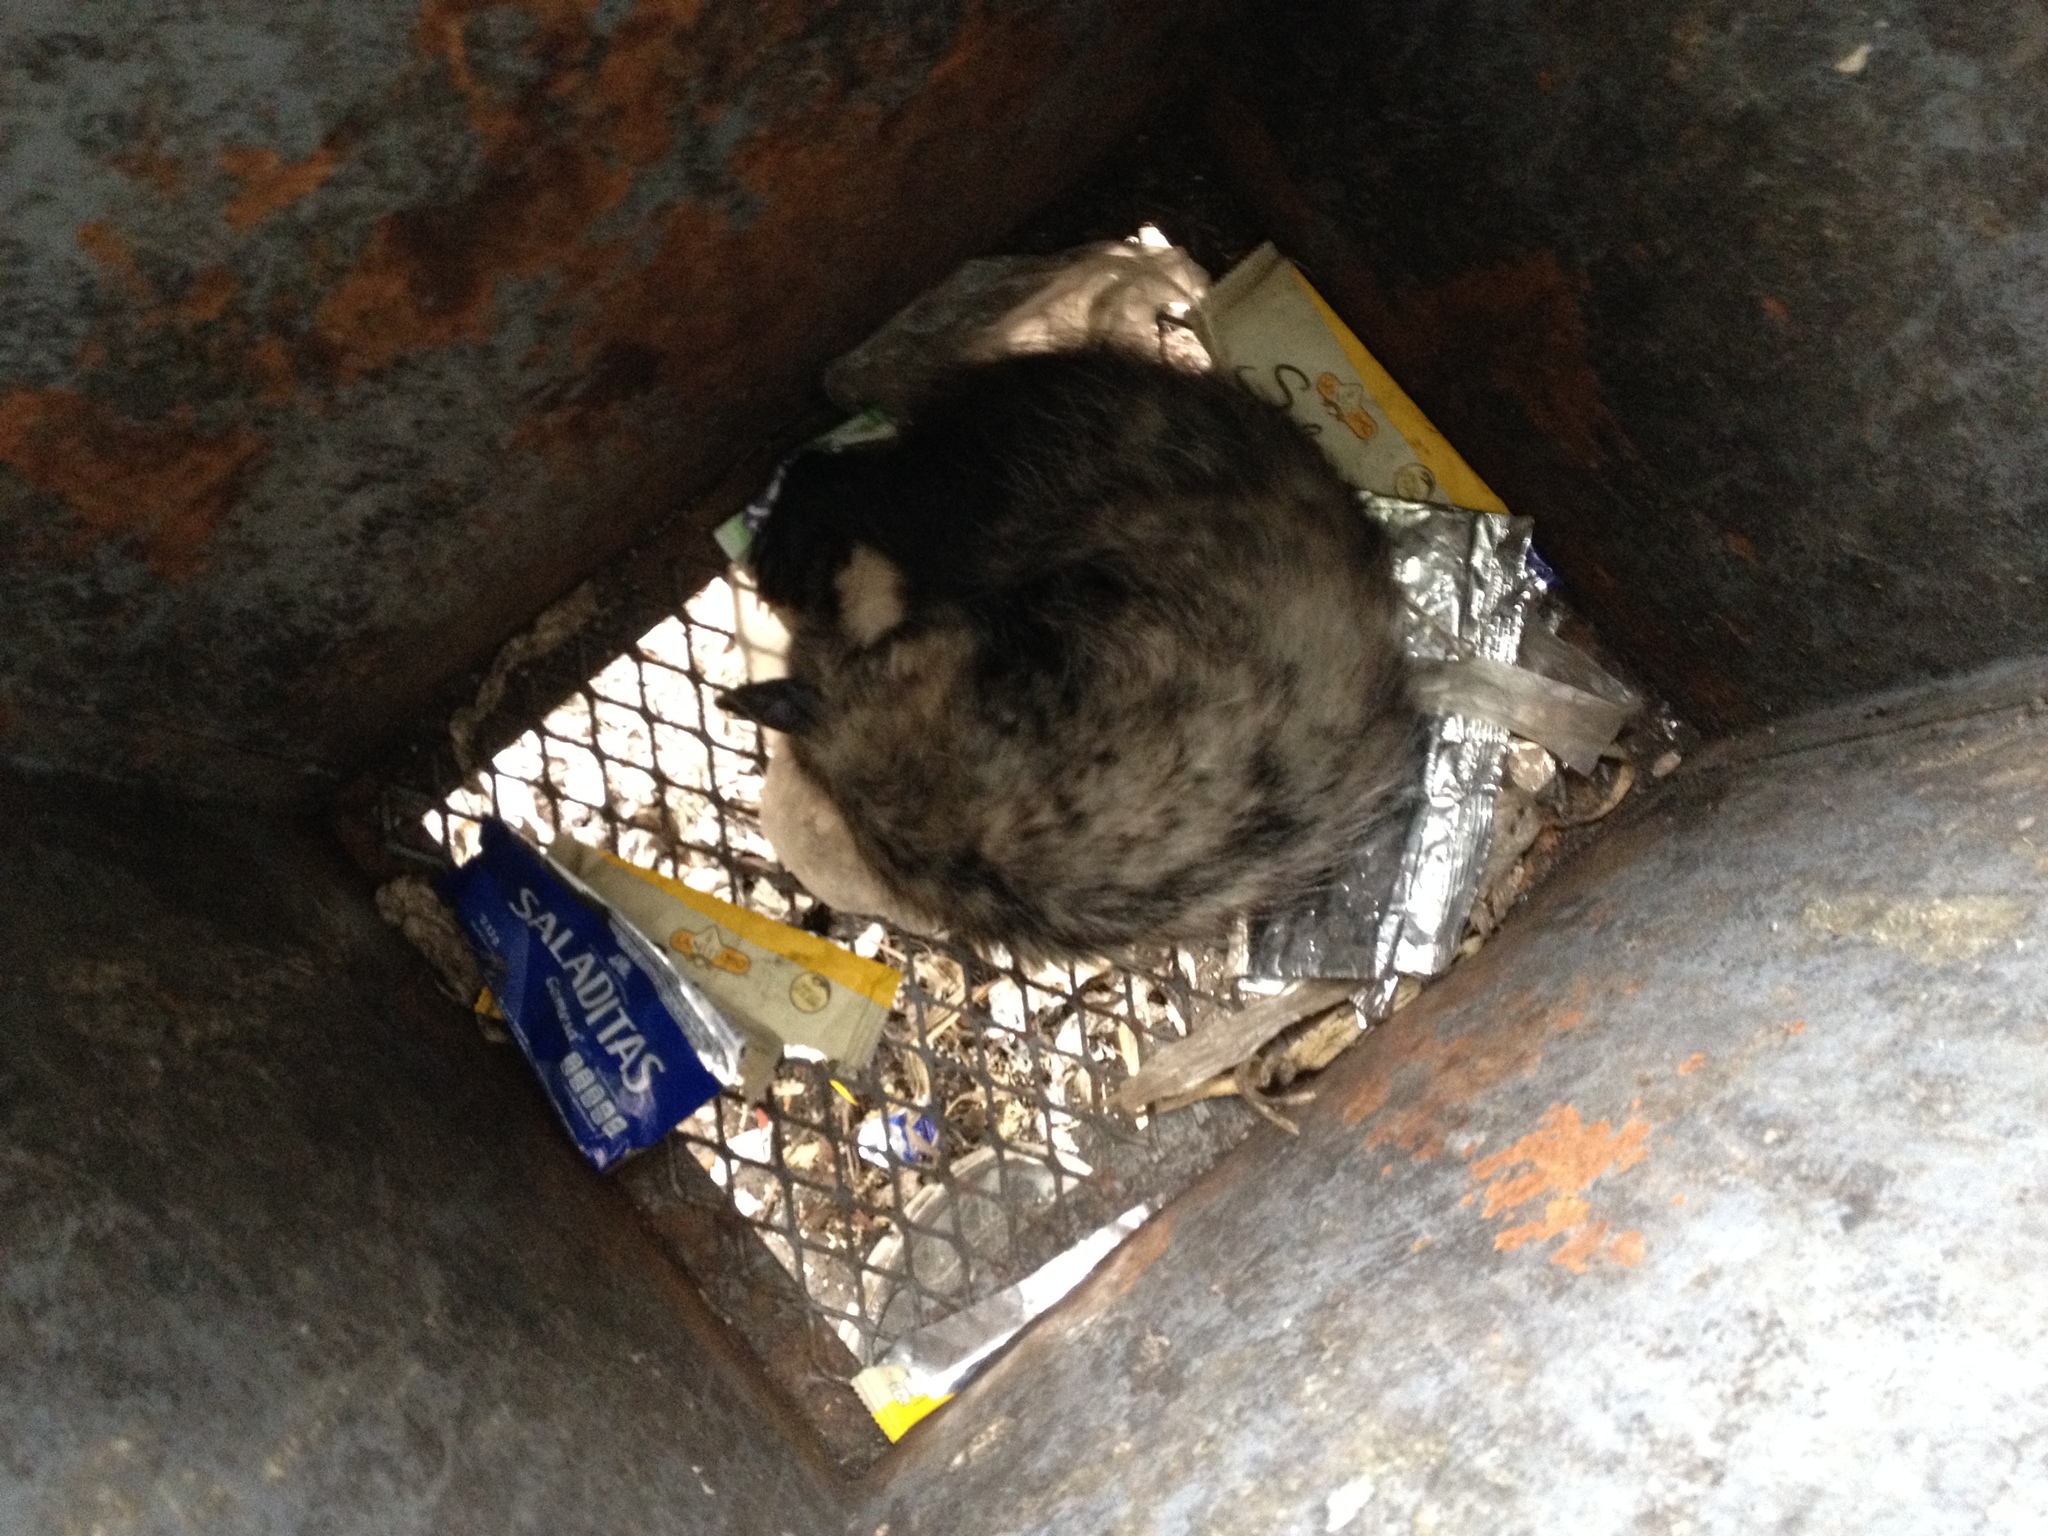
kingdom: Animalia
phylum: Chordata
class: Mammalia
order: Didelphimorphia
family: Didelphidae
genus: Didelphis
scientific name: Didelphis virginiana
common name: Virginia opossum
